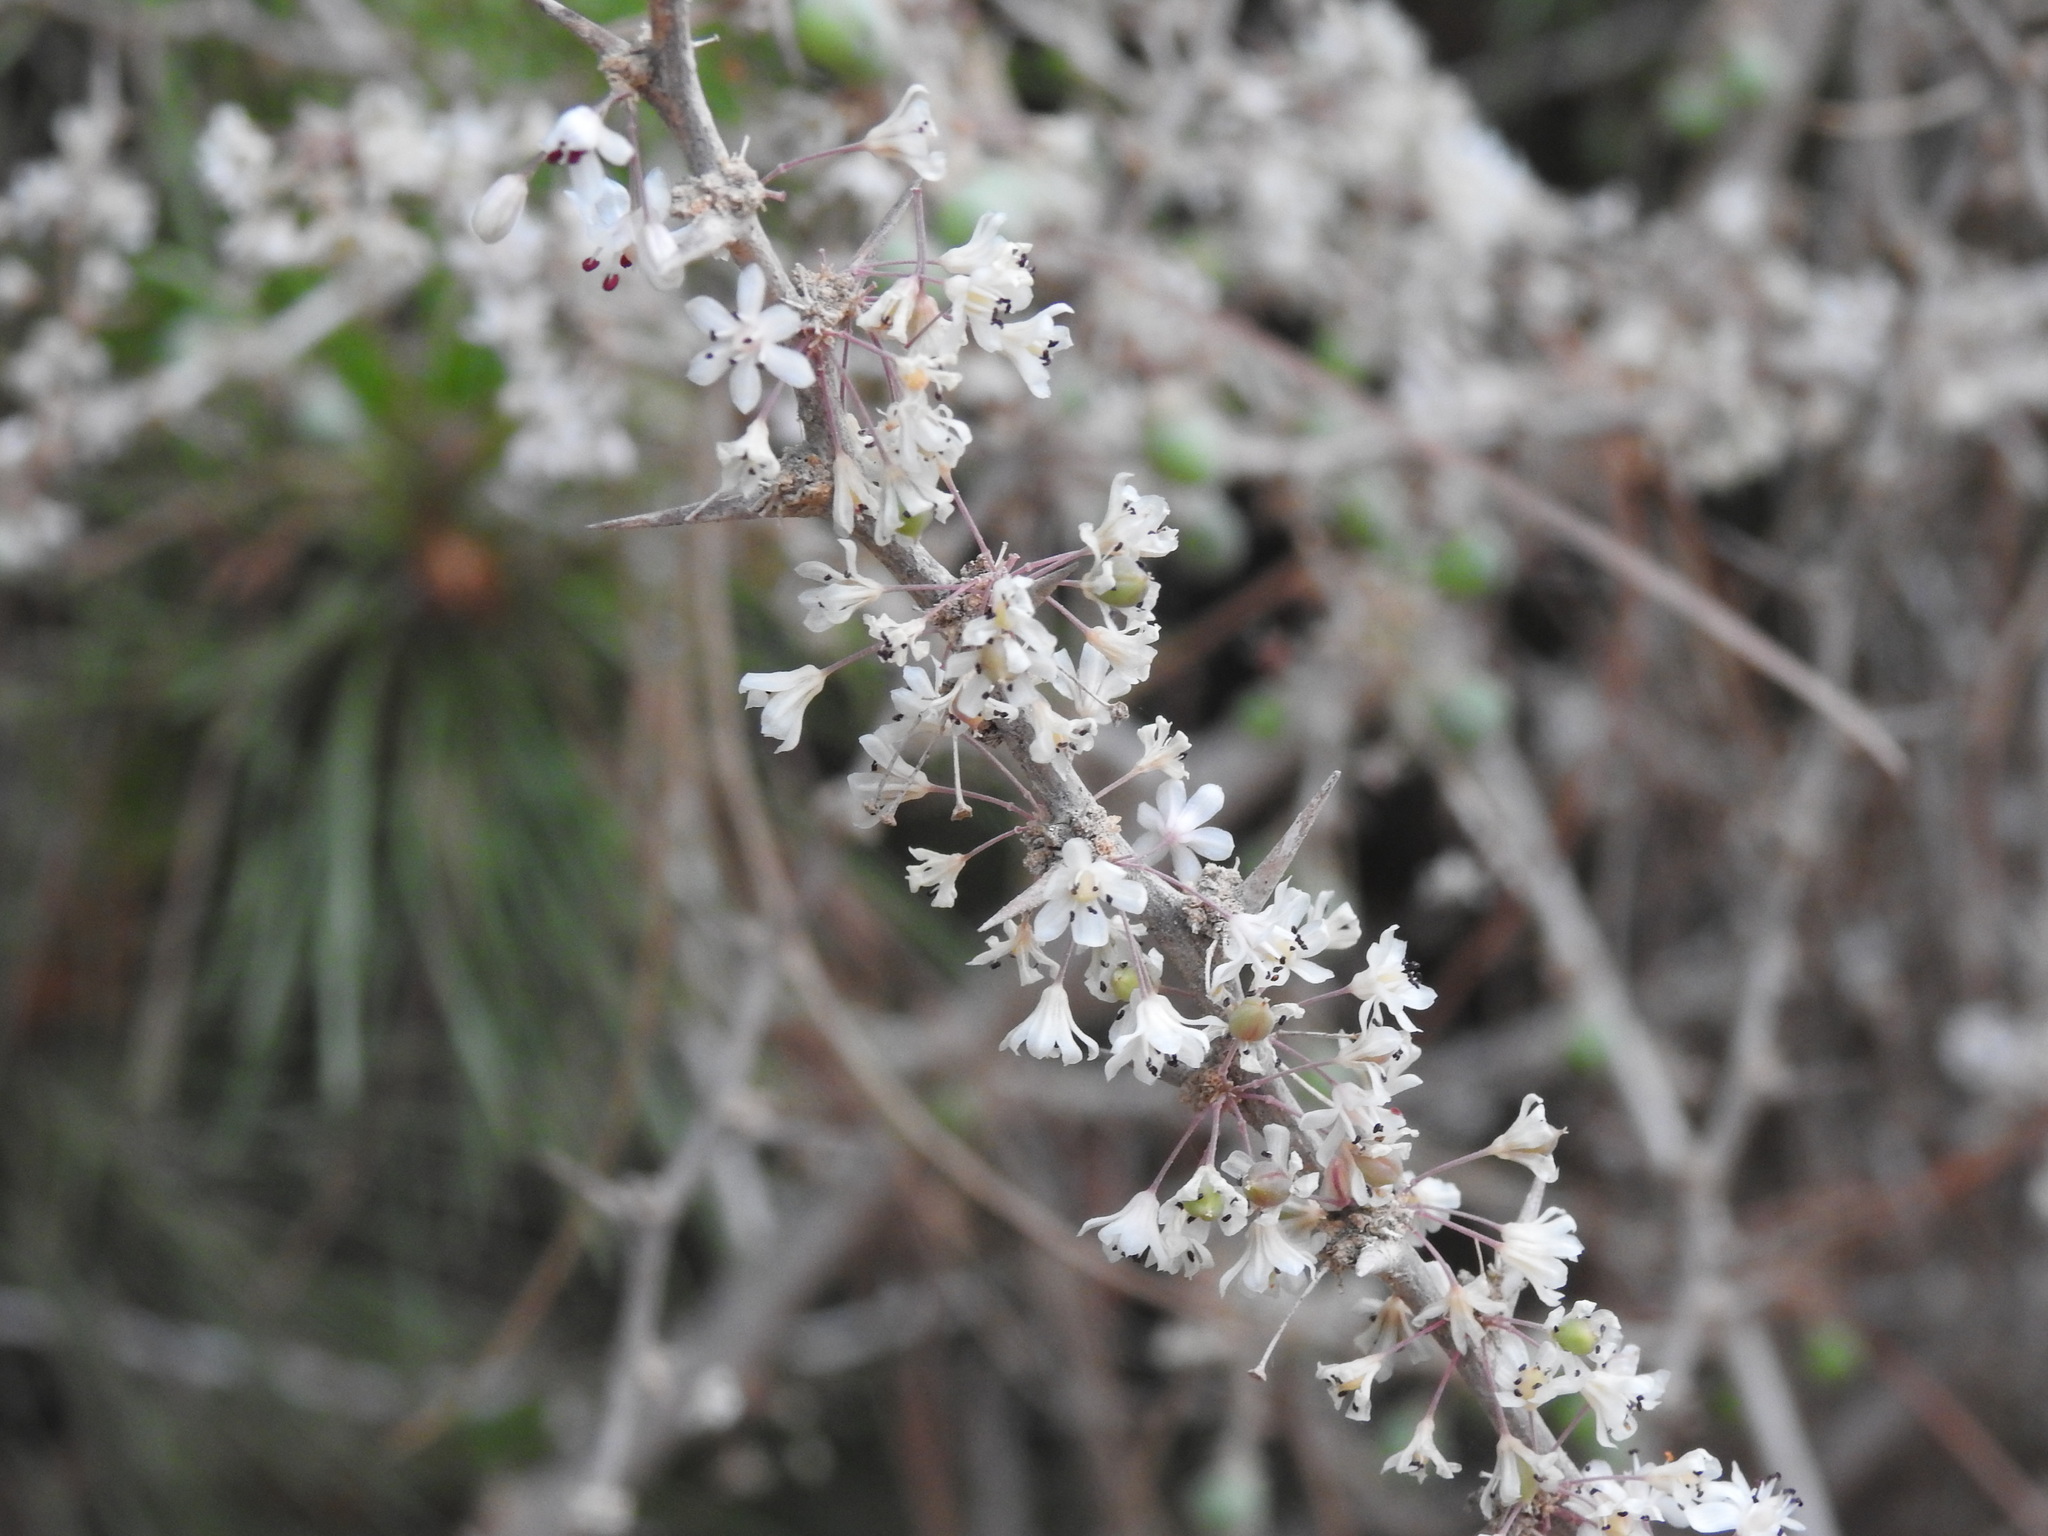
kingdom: Plantae
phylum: Tracheophyta
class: Liliopsida
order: Asparagales
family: Asparagaceae
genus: Asparagus
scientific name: Asparagus albus
